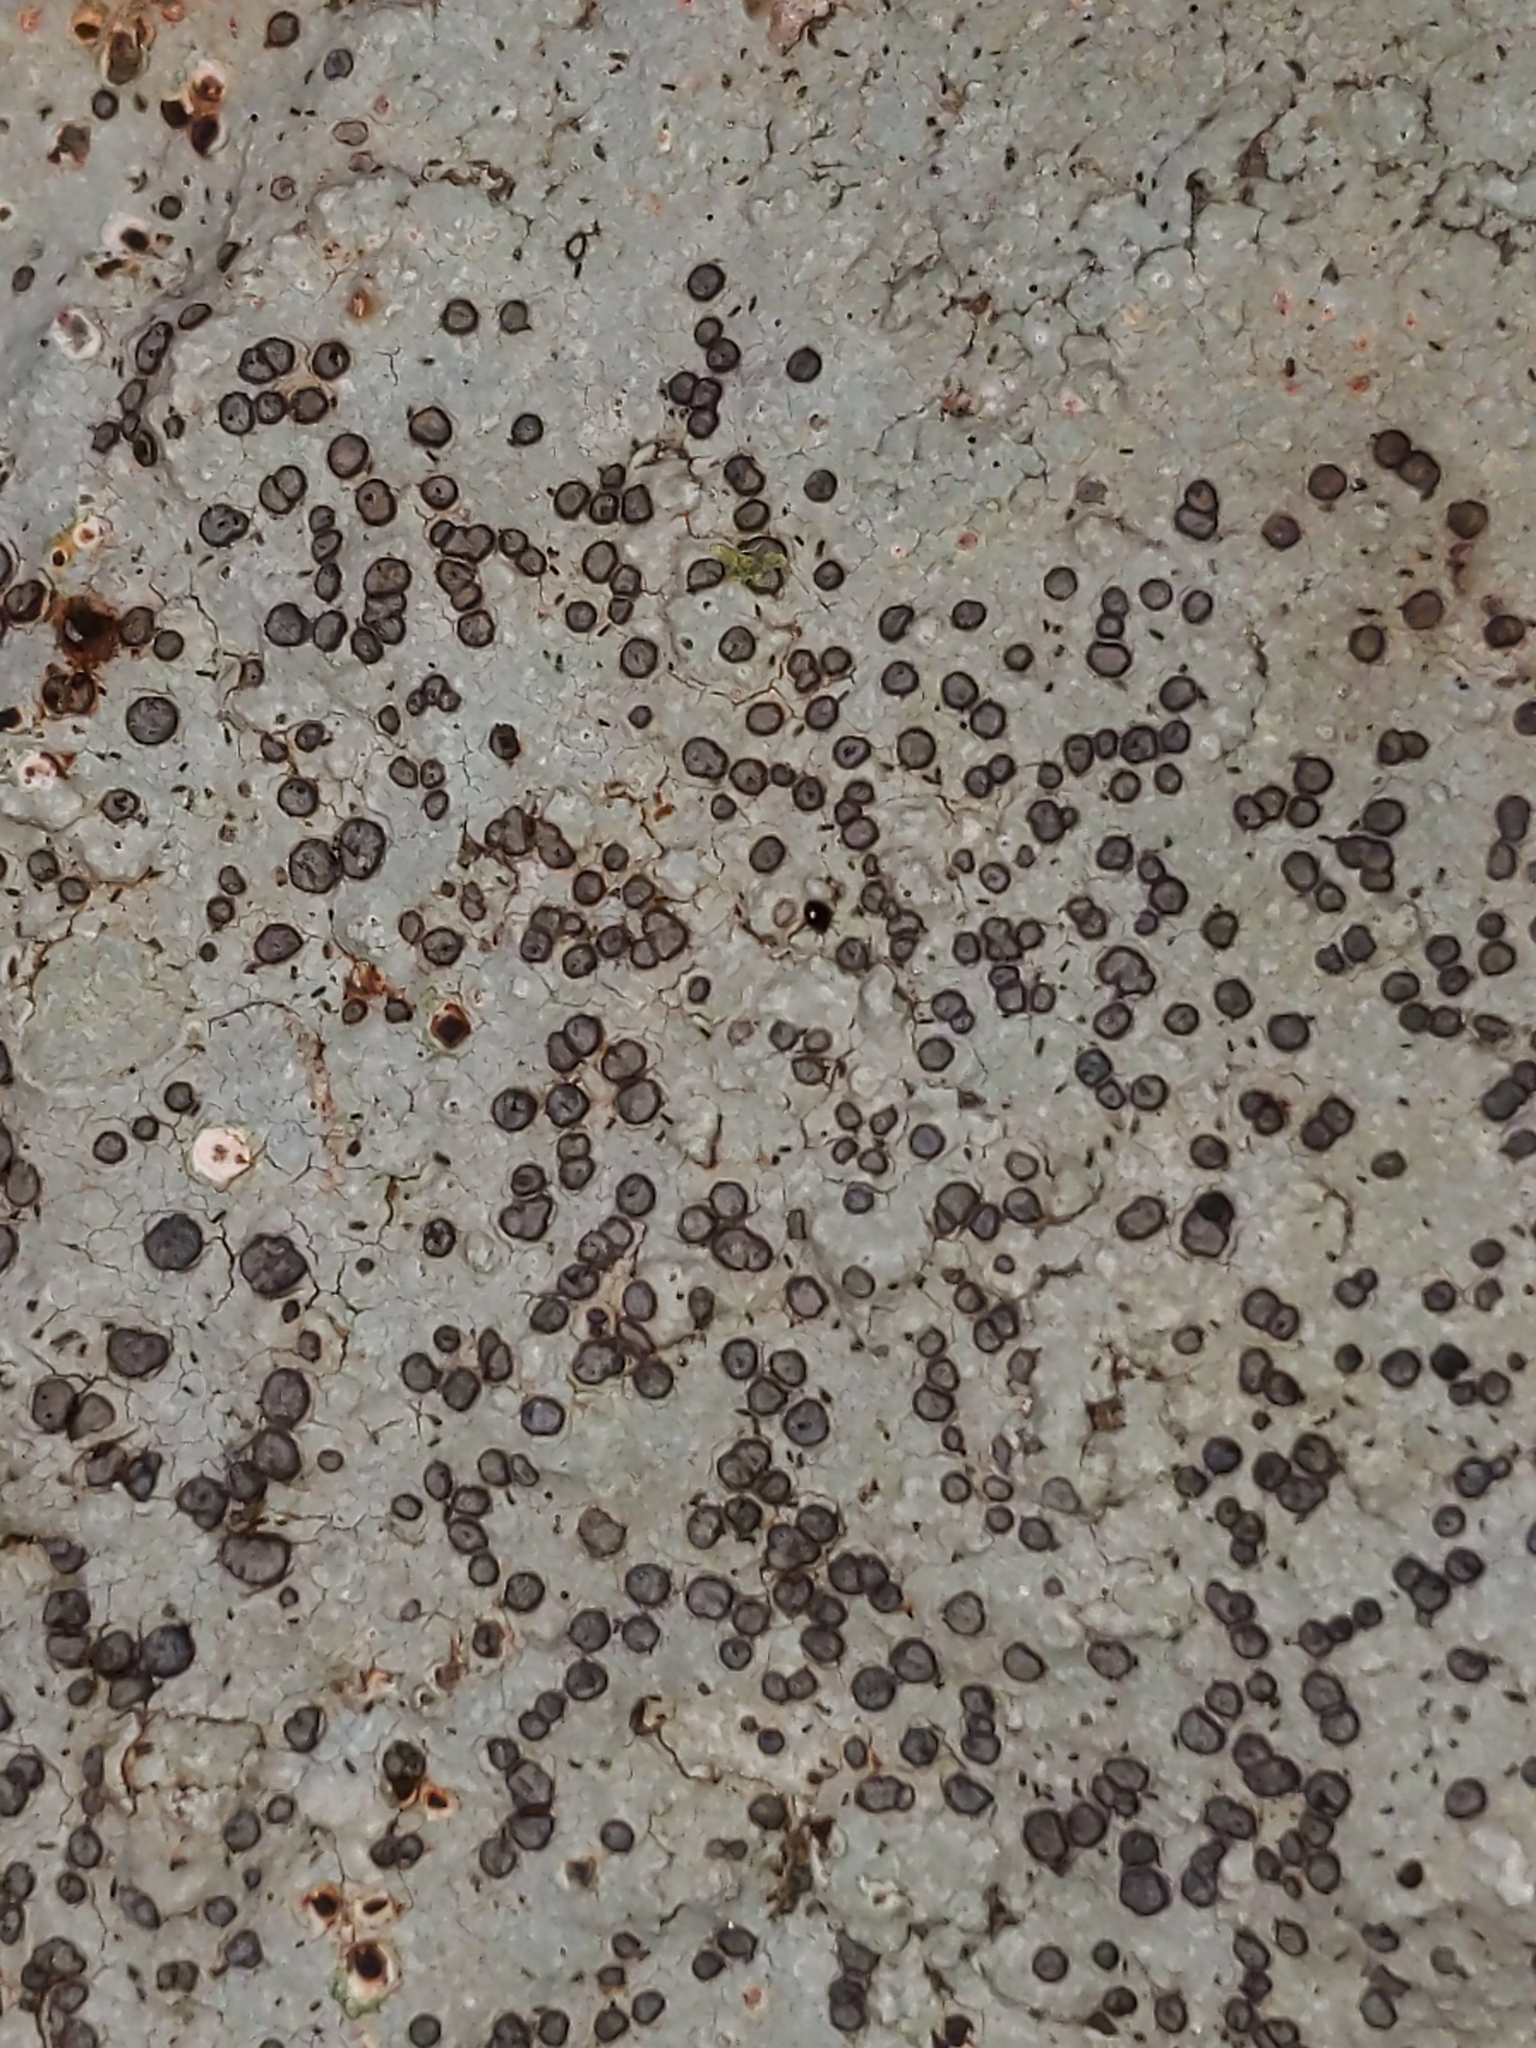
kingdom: Fungi
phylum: Ascomycota
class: Lecanoromycetes
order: Lecideales
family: Lecideaceae
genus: Porpidia
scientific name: Porpidia albocaerulescens
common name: Smokey-eyed boulder lichen
